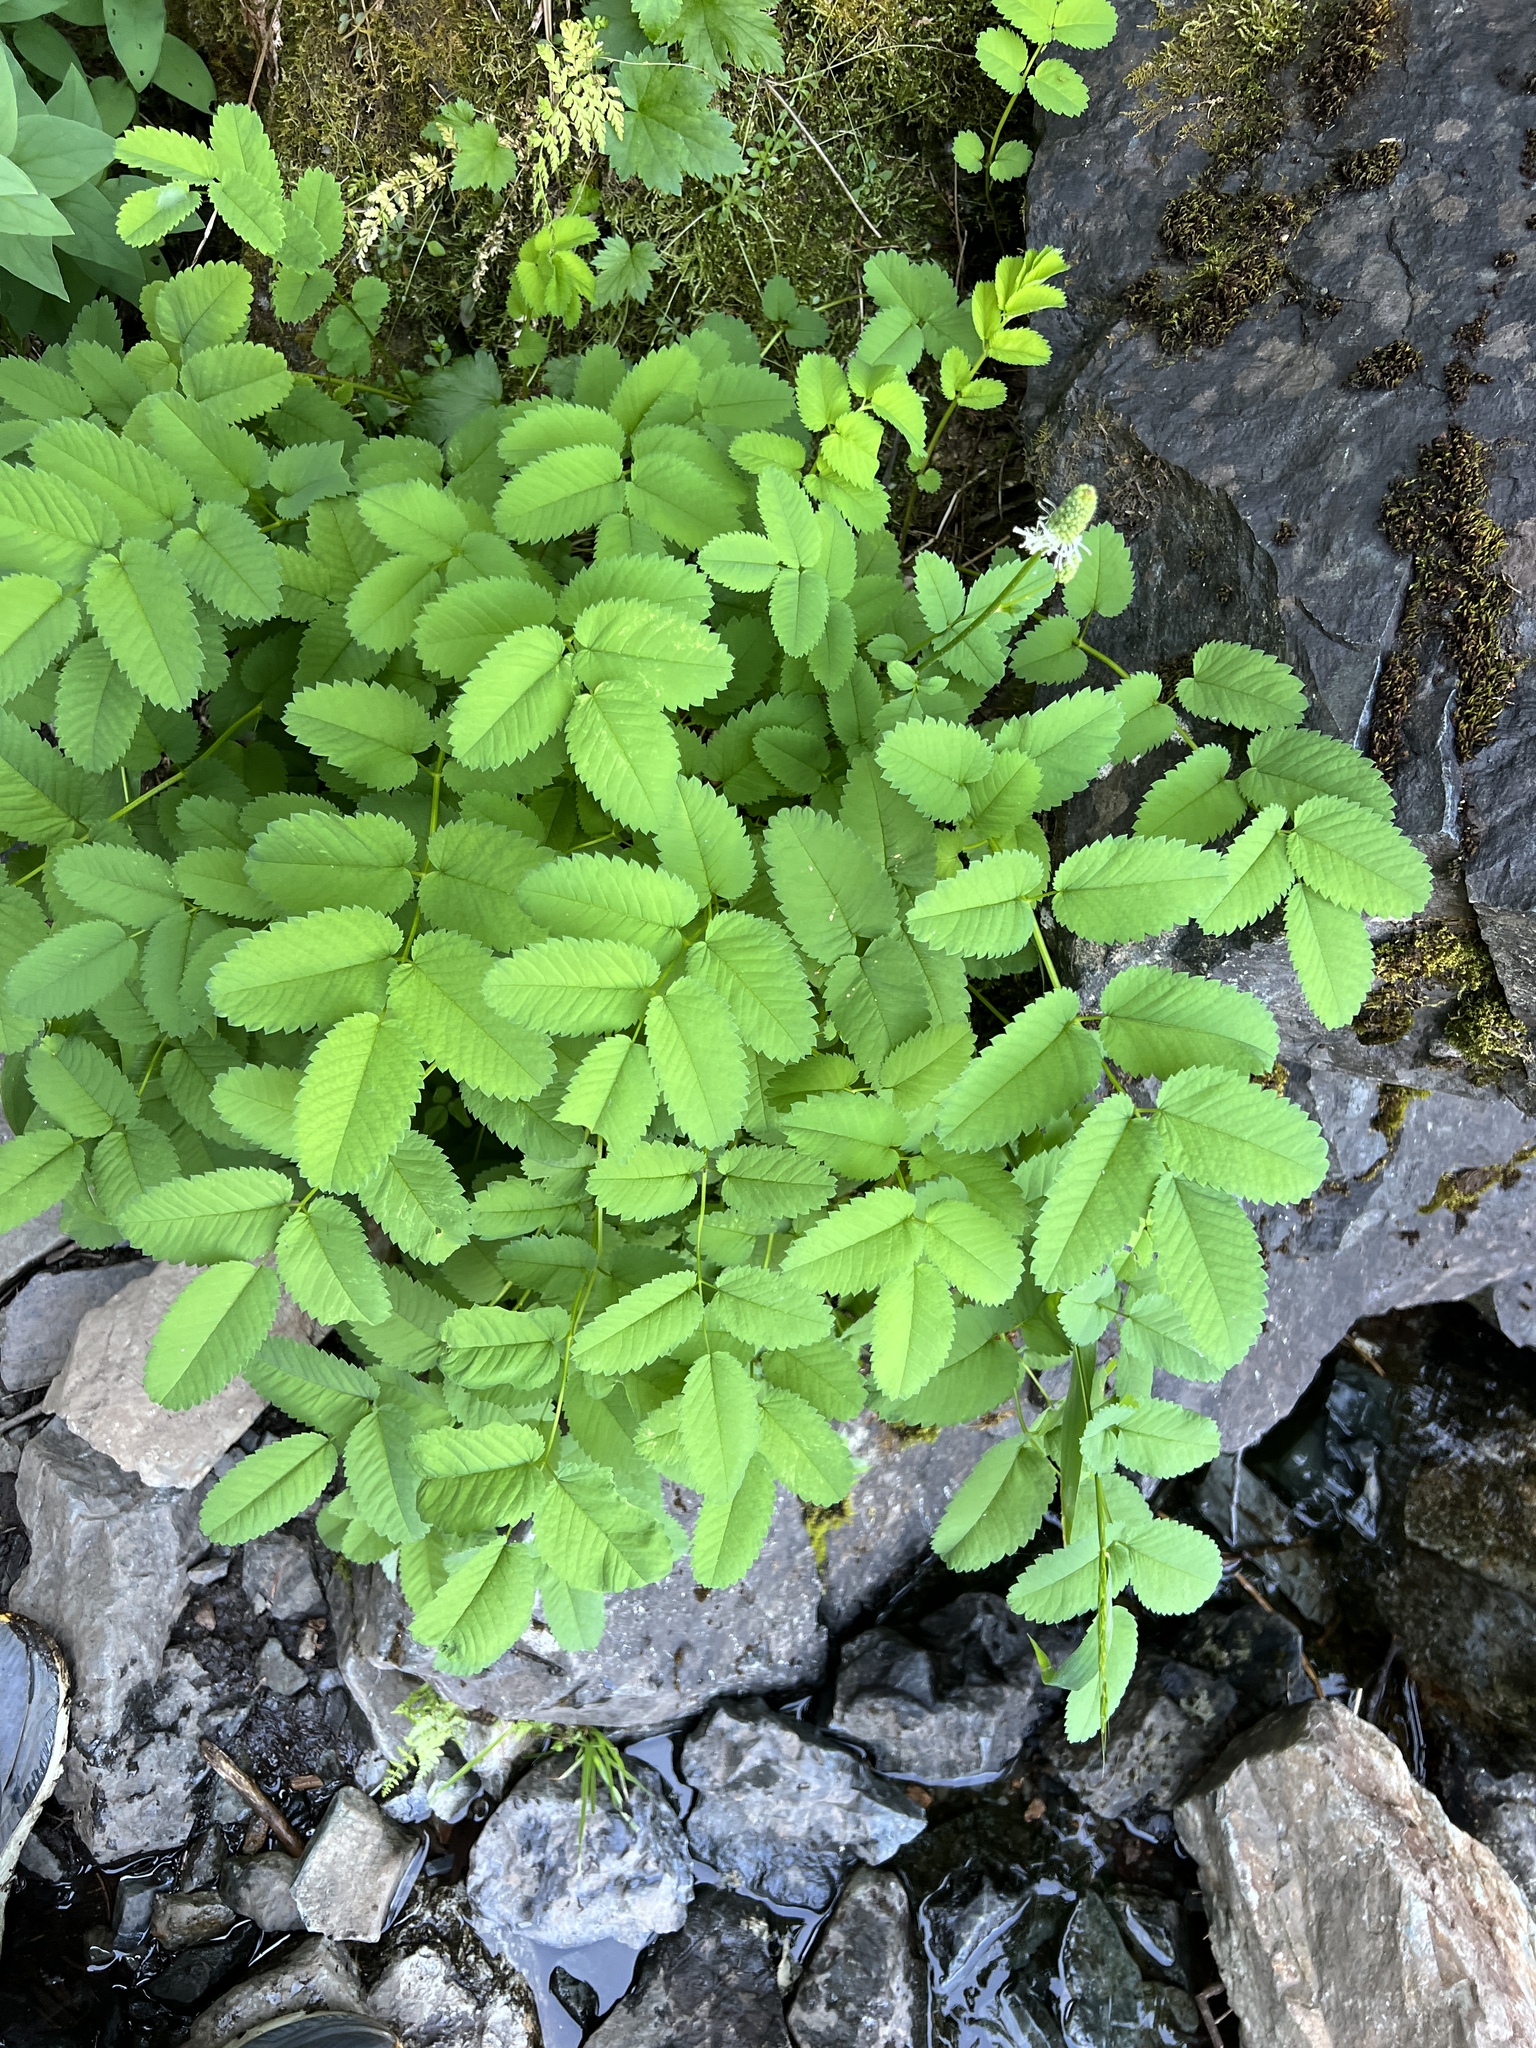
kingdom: Plantae
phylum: Tracheophyta
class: Magnoliopsida
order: Rosales
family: Rosaceae
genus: Sanguisorba
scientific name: Sanguisorba stipulata
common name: Sitka burnet
